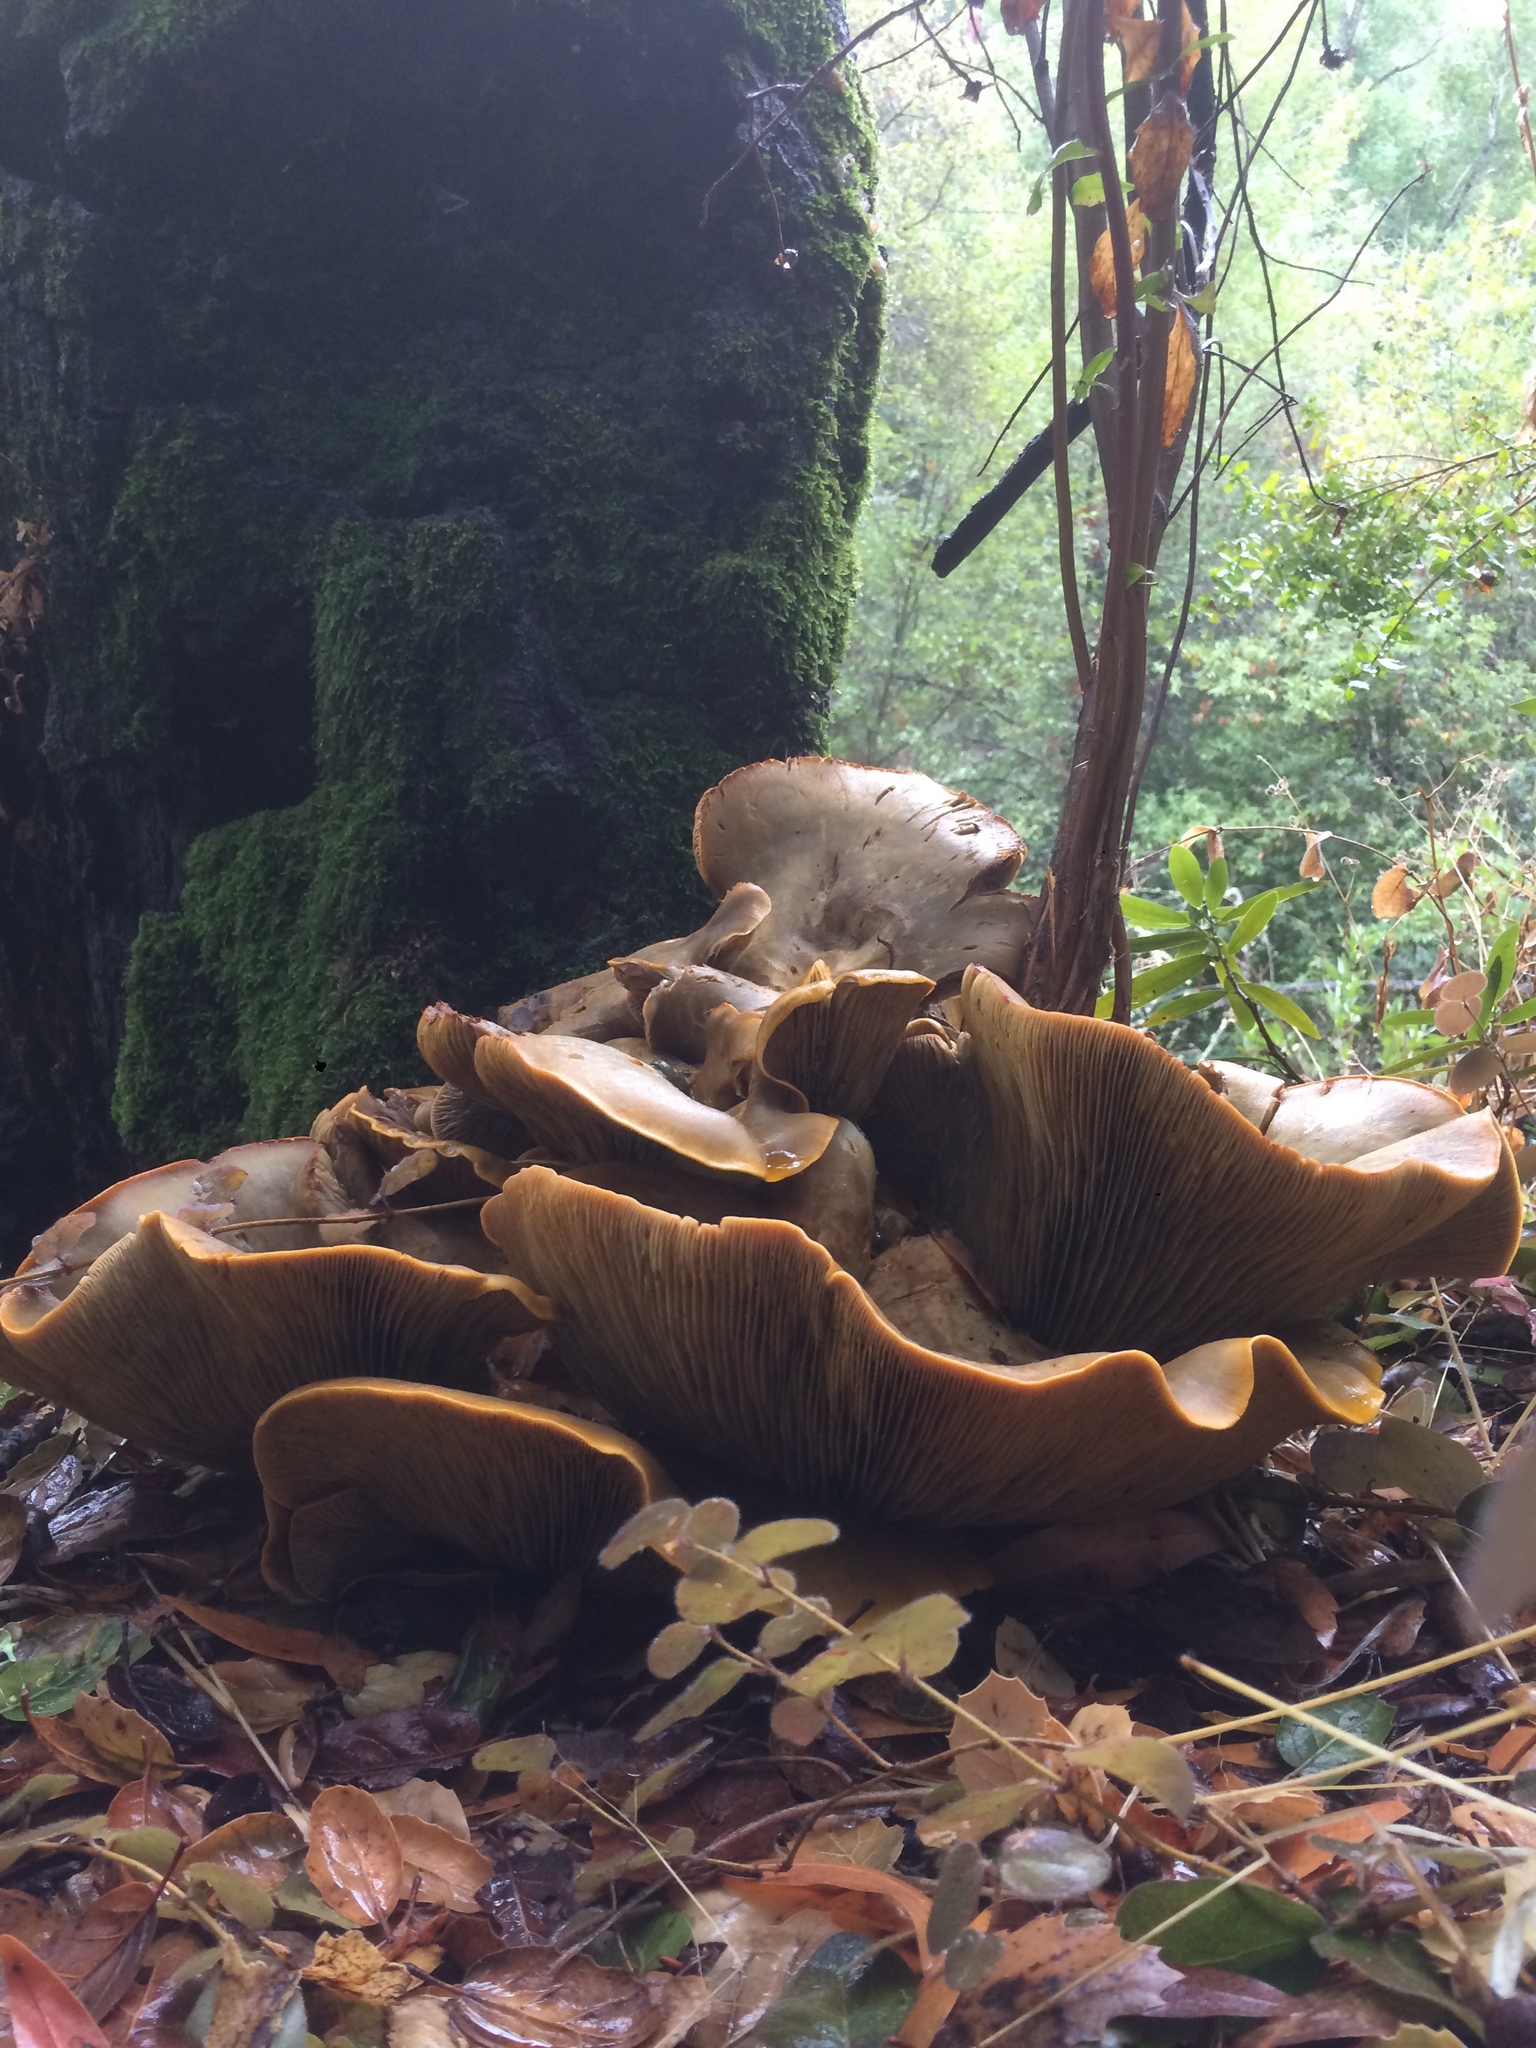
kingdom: Fungi
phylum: Basidiomycota
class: Agaricomycetes
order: Agaricales
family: Omphalotaceae
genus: Omphalotus
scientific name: Omphalotus olivascens
